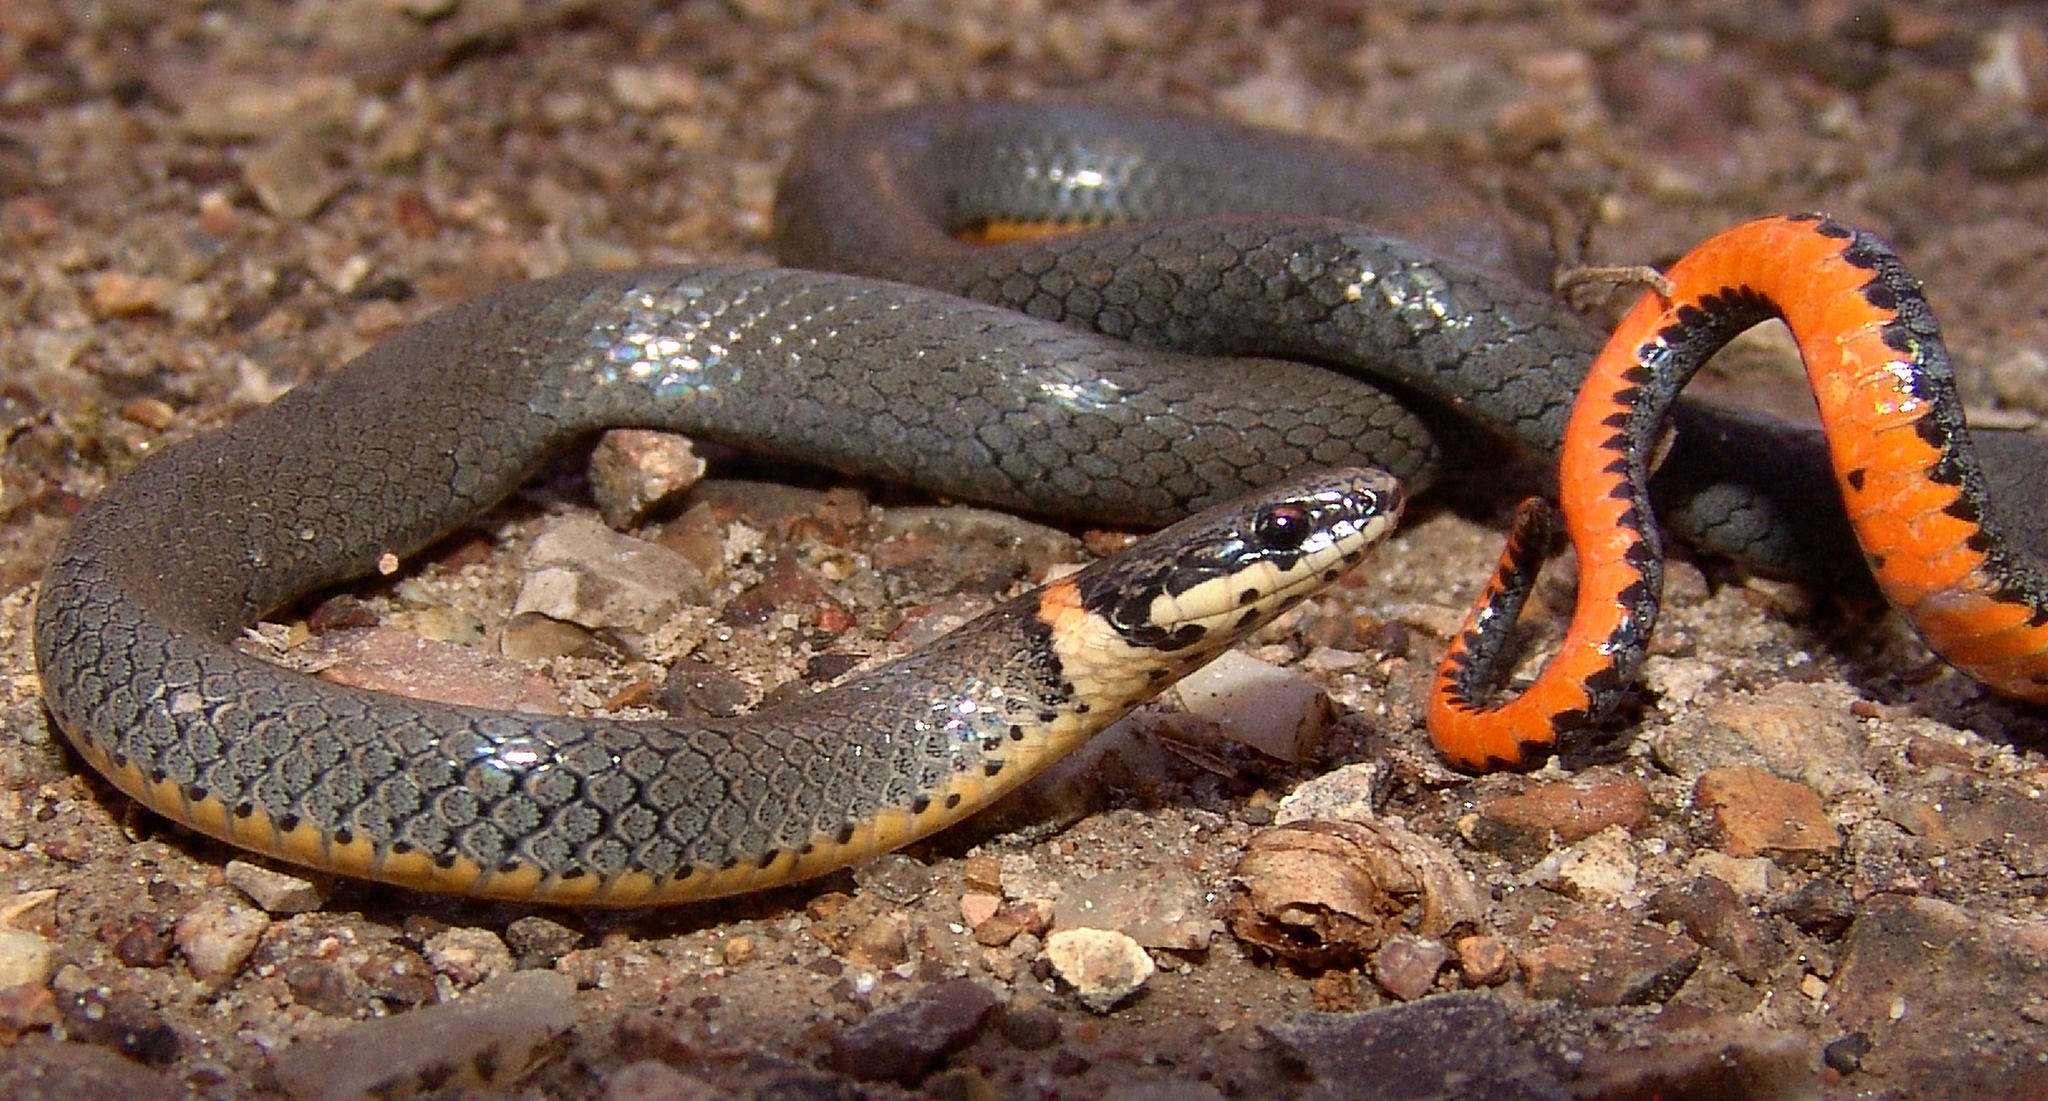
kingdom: Animalia
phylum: Chordata
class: Squamata
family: Colubridae
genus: Diadophis
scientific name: Diadophis punctatus
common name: Ringneck snake
